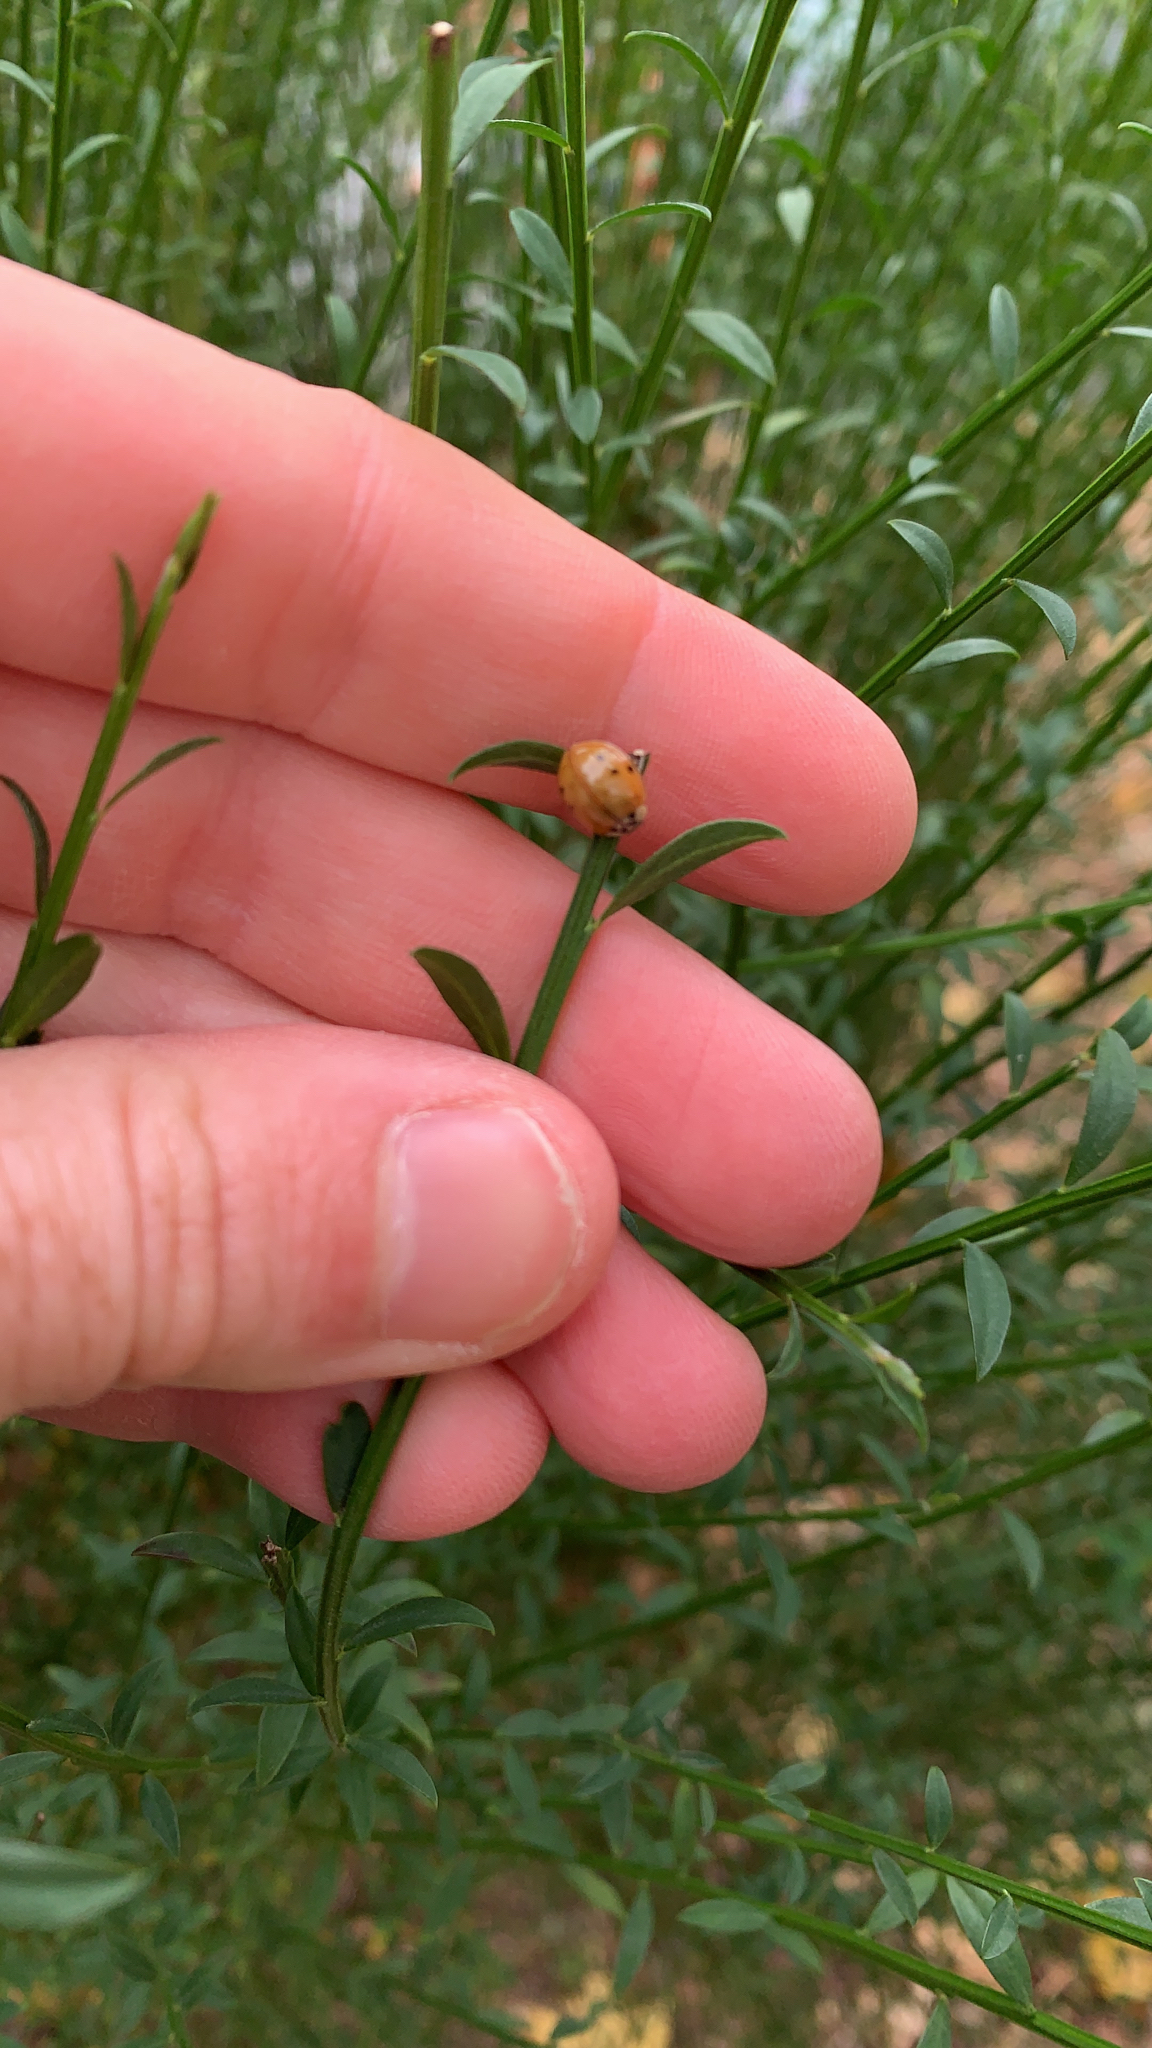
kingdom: Animalia
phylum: Arthropoda
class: Insecta
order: Coleoptera
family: Coccinellidae
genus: Harmonia
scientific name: Harmonia axyridis
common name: Harlequin ladybird
